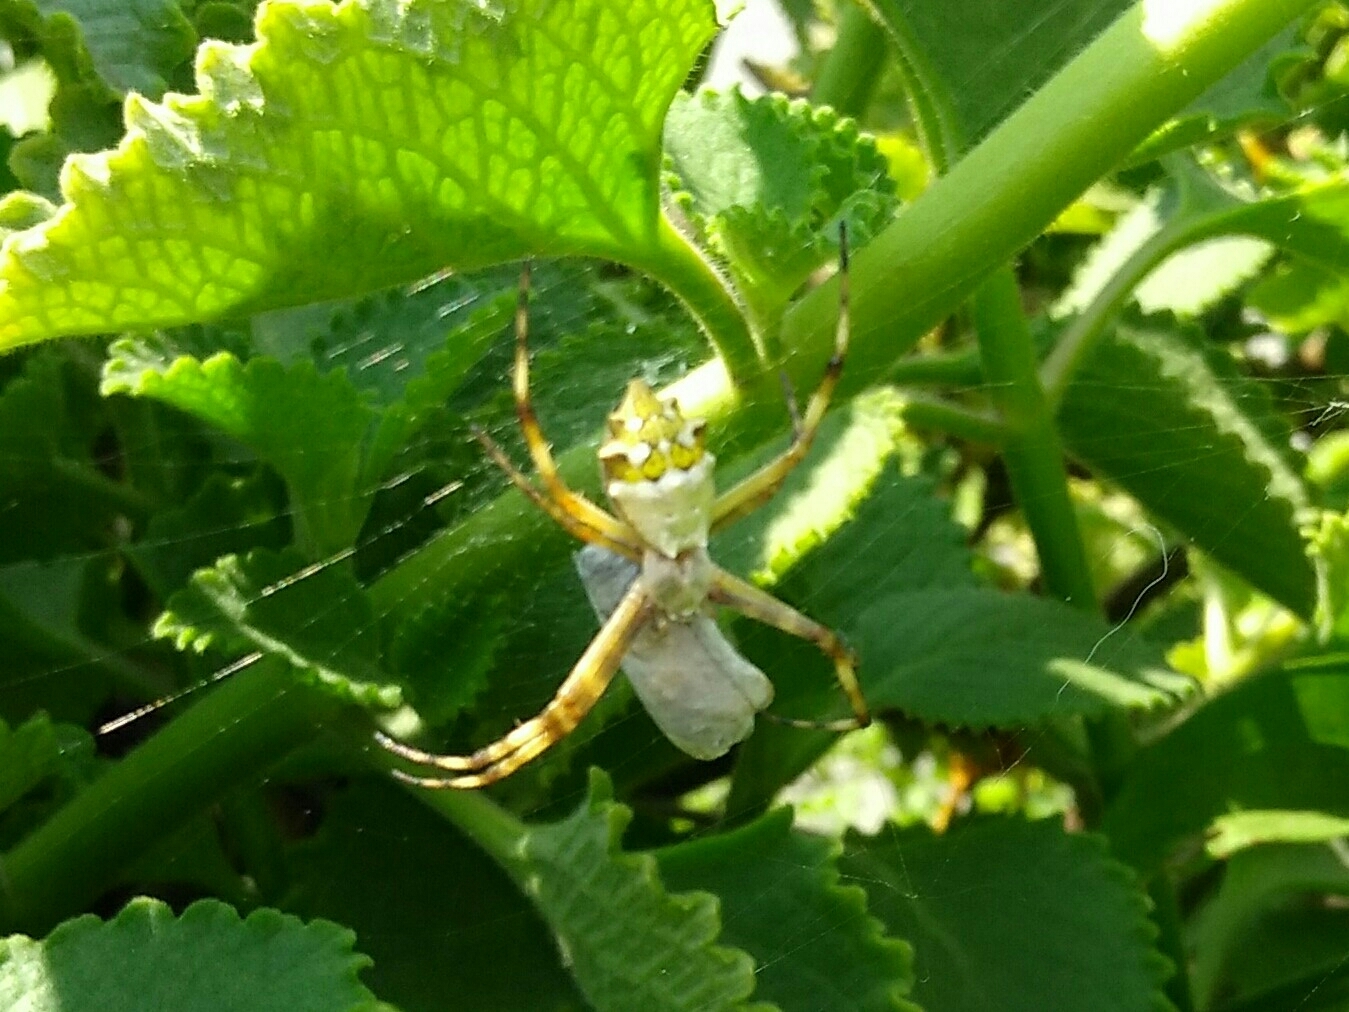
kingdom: Animalia
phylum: Arthropoda
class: Arachnida
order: Araneae
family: Araneidae
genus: Argiope
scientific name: Argiope argentata
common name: Orb weavers
